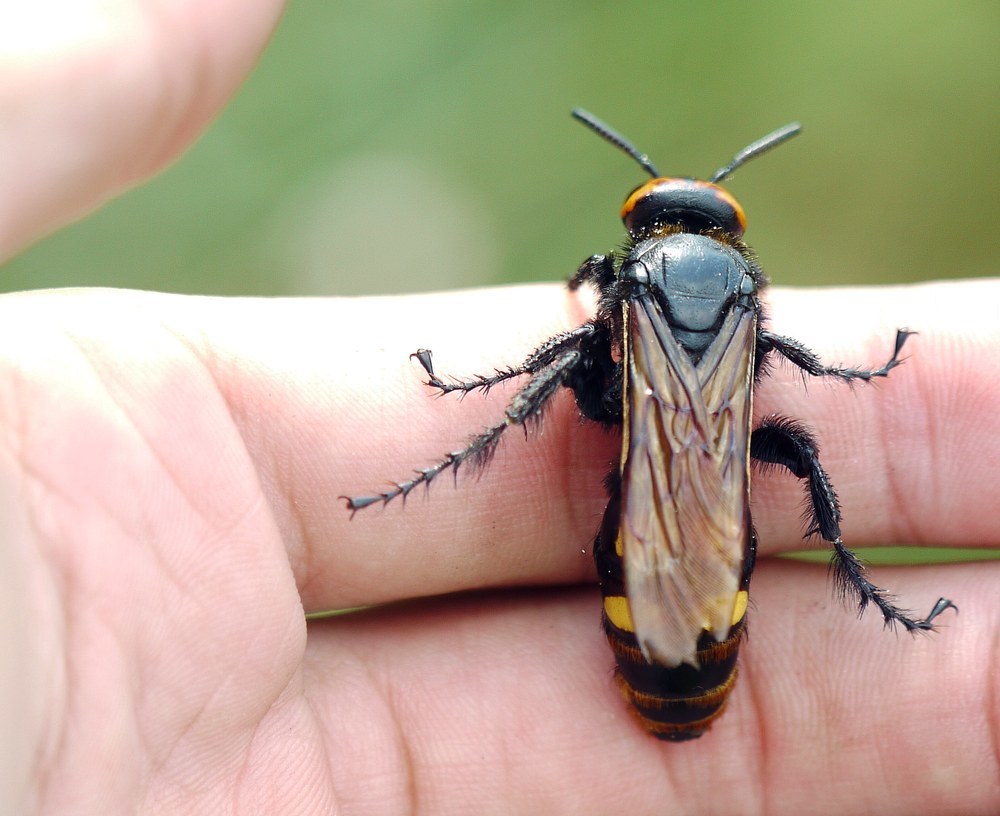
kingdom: Animalia
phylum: Arthropoda
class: Insecta
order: Hymenoptera
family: Scoliidae
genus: Megascolia
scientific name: Megascolia maculata
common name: Mammoth wasp
